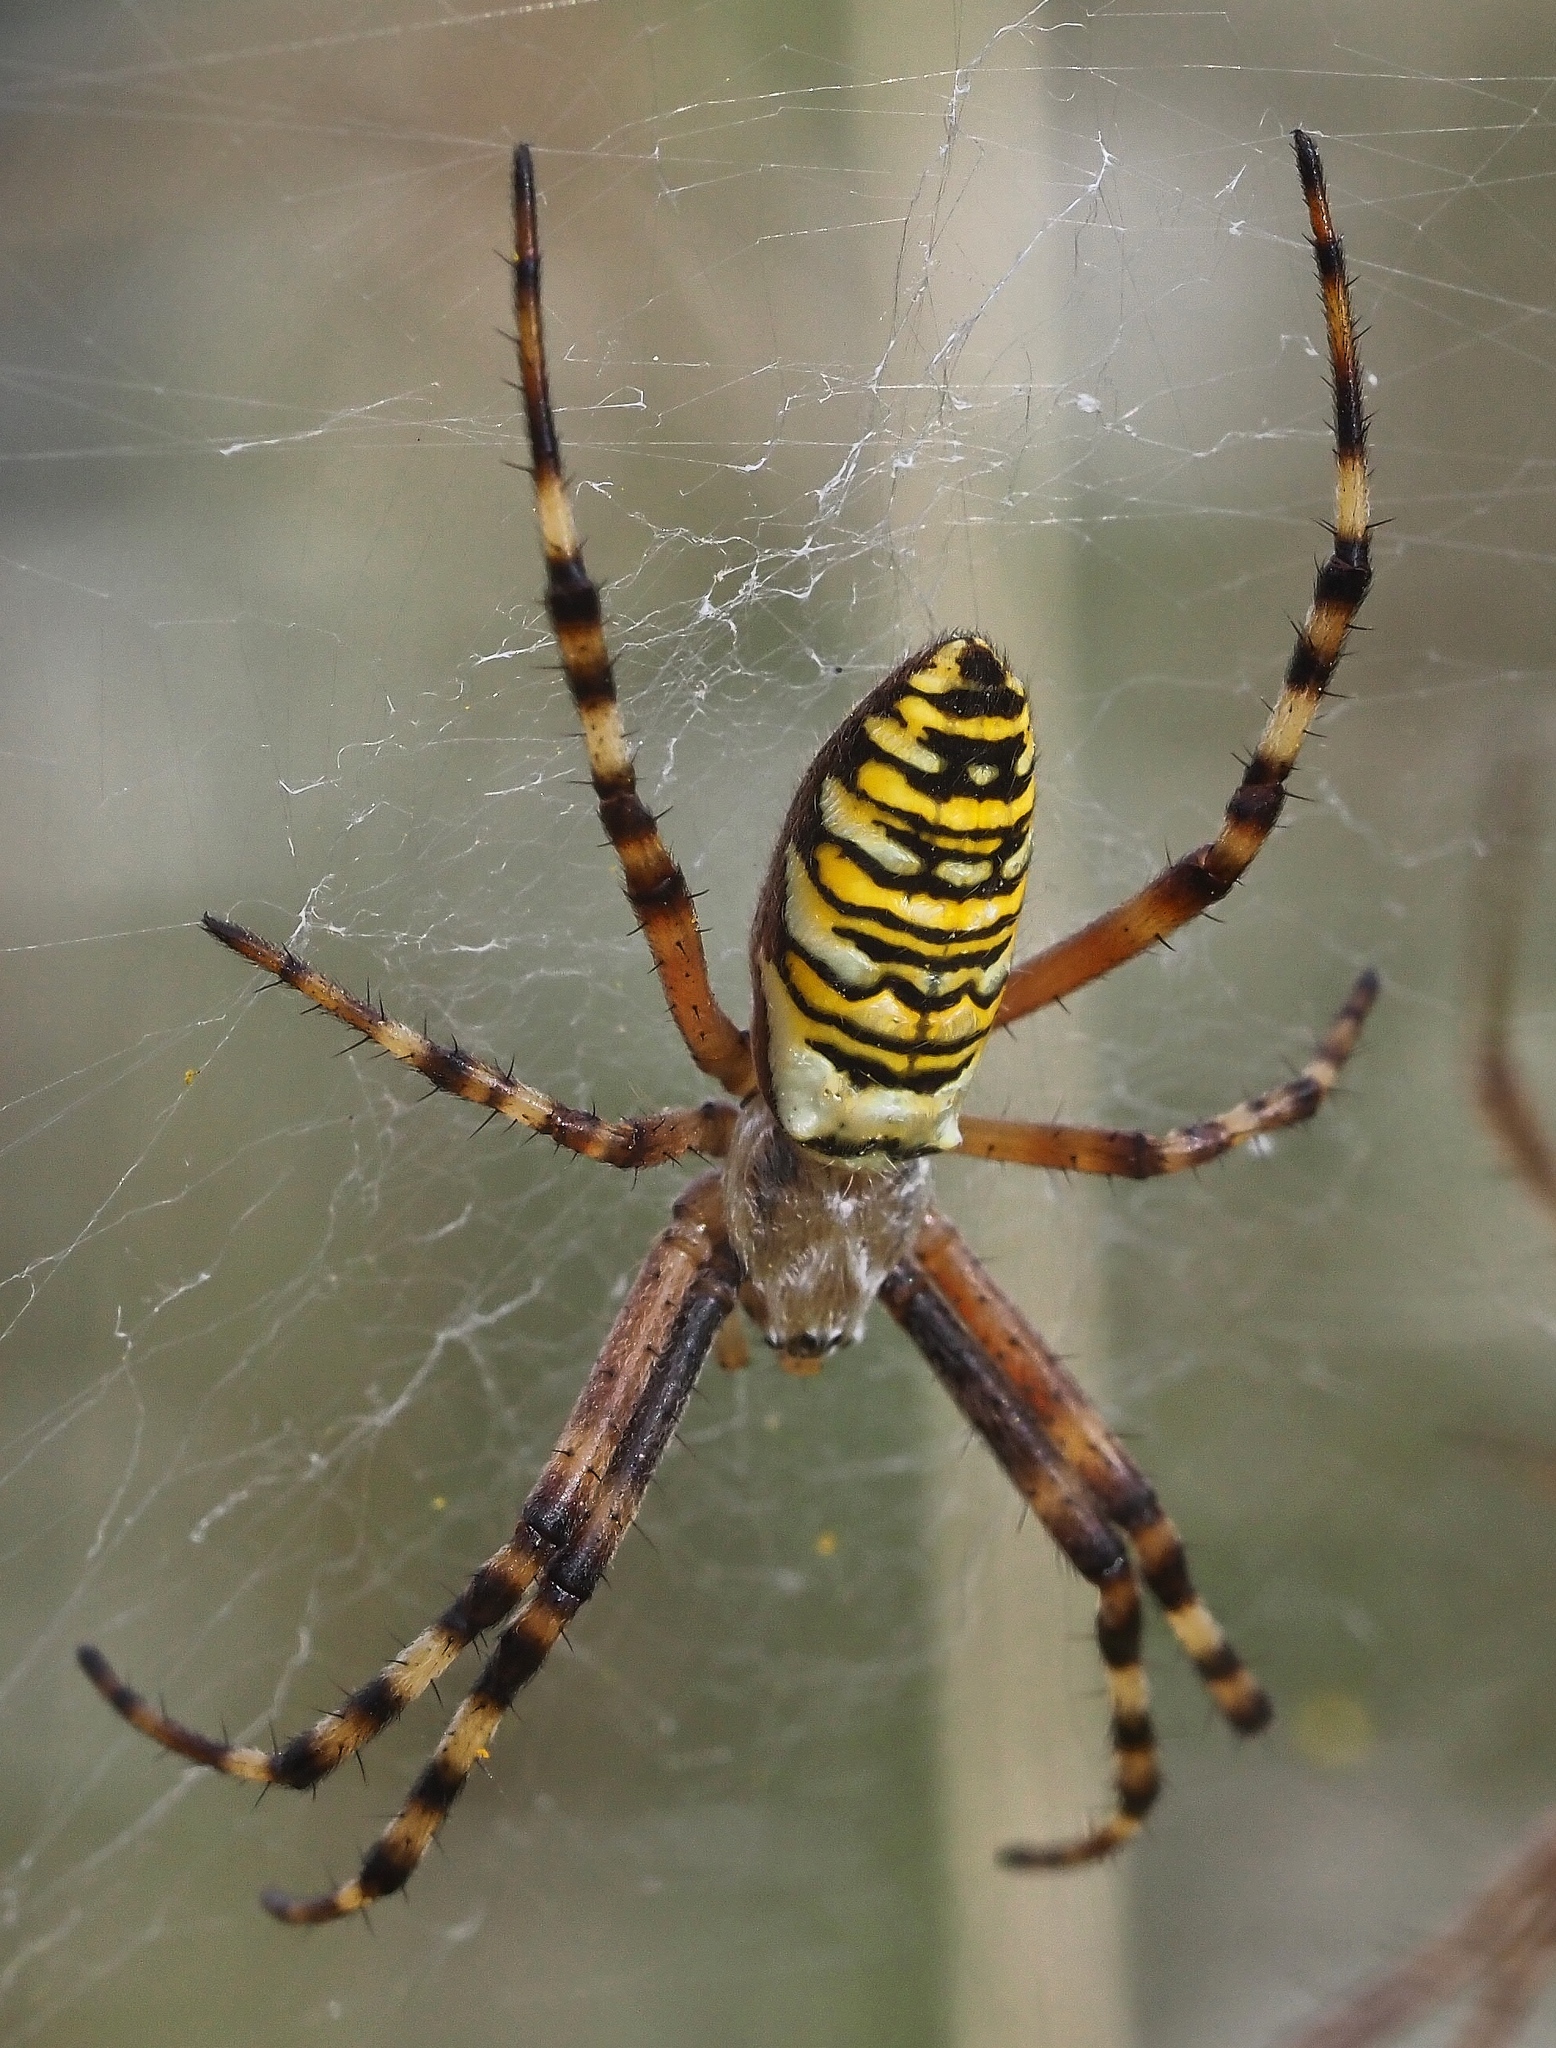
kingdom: Animalia
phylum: Arthropoda
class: Arachnida
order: Araneae
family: Araneidae
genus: Argiope
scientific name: Argiope bruennichi
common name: Wasp spider
